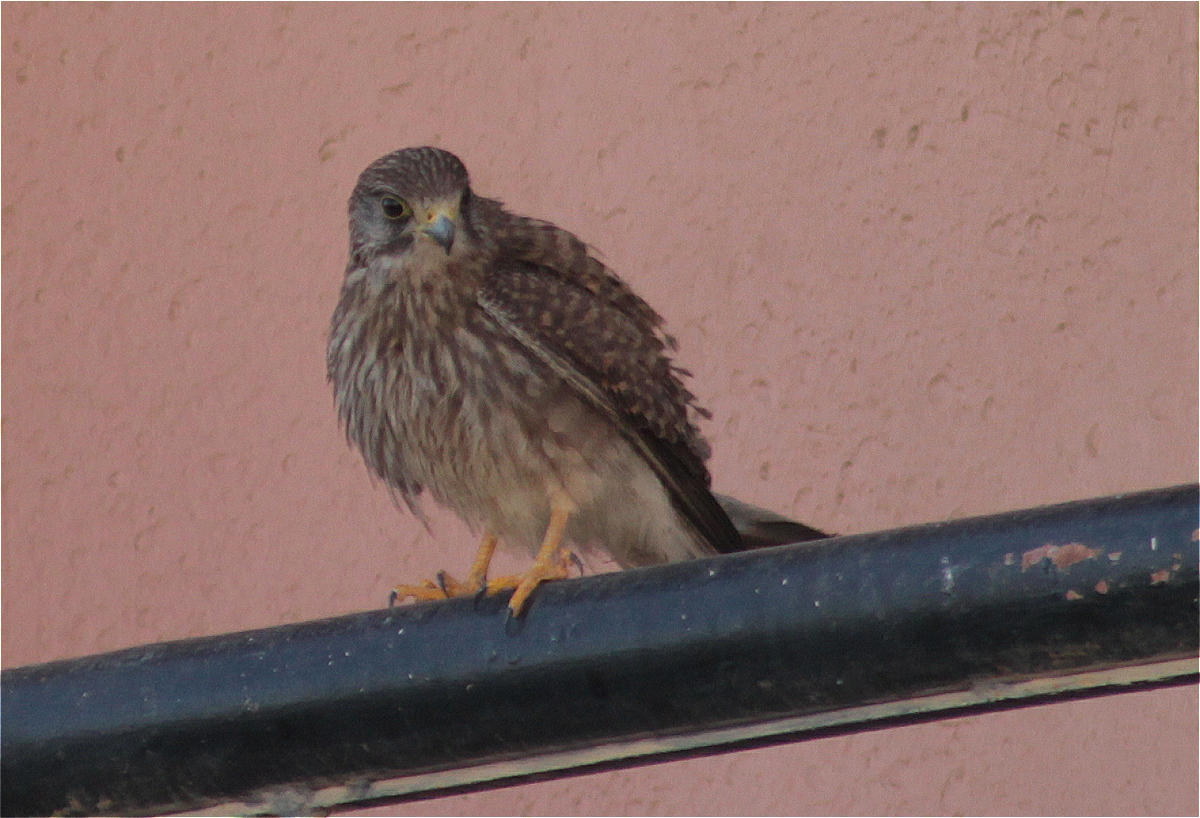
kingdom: Animalia
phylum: Chordata
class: Aves
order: Falconiformes
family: Falconidae
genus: Falco
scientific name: Falco tinnunculus
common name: Common kestrel
